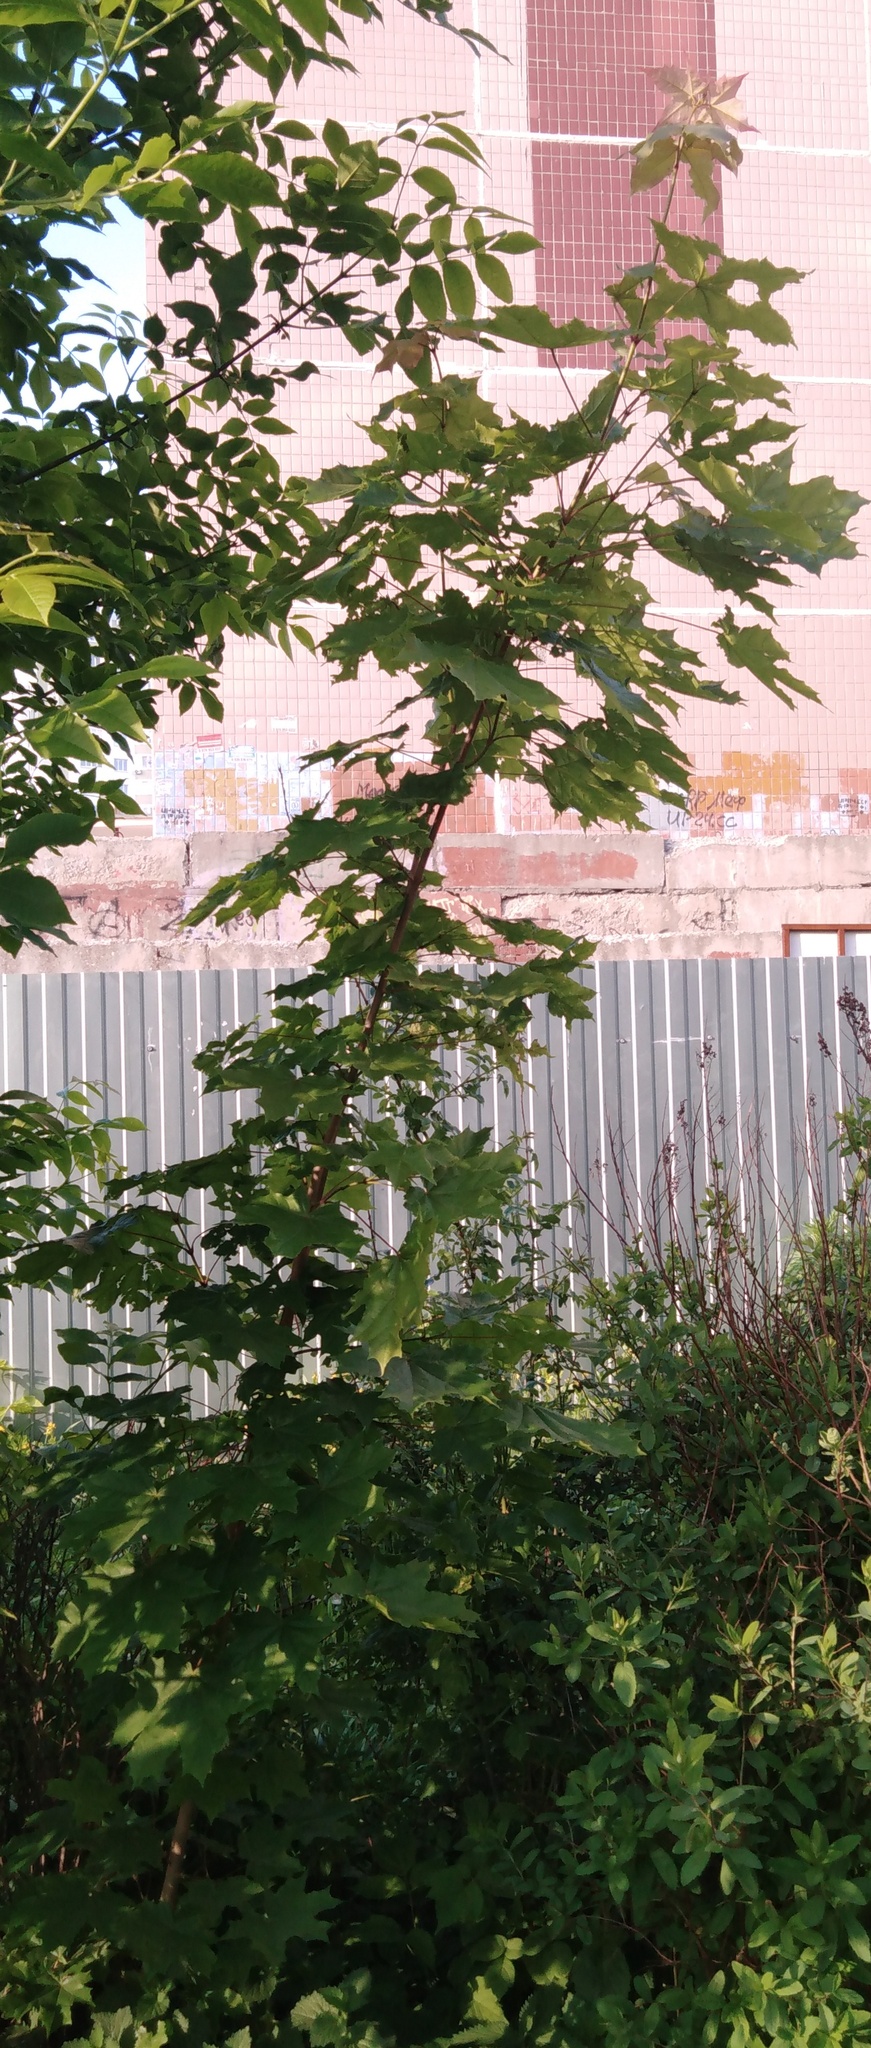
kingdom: Plantae
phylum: Tracheophyta
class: Magnoliopsida
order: Sapindales
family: Sapindaceae
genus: Acer
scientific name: Acer platanoides
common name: Norway maple
